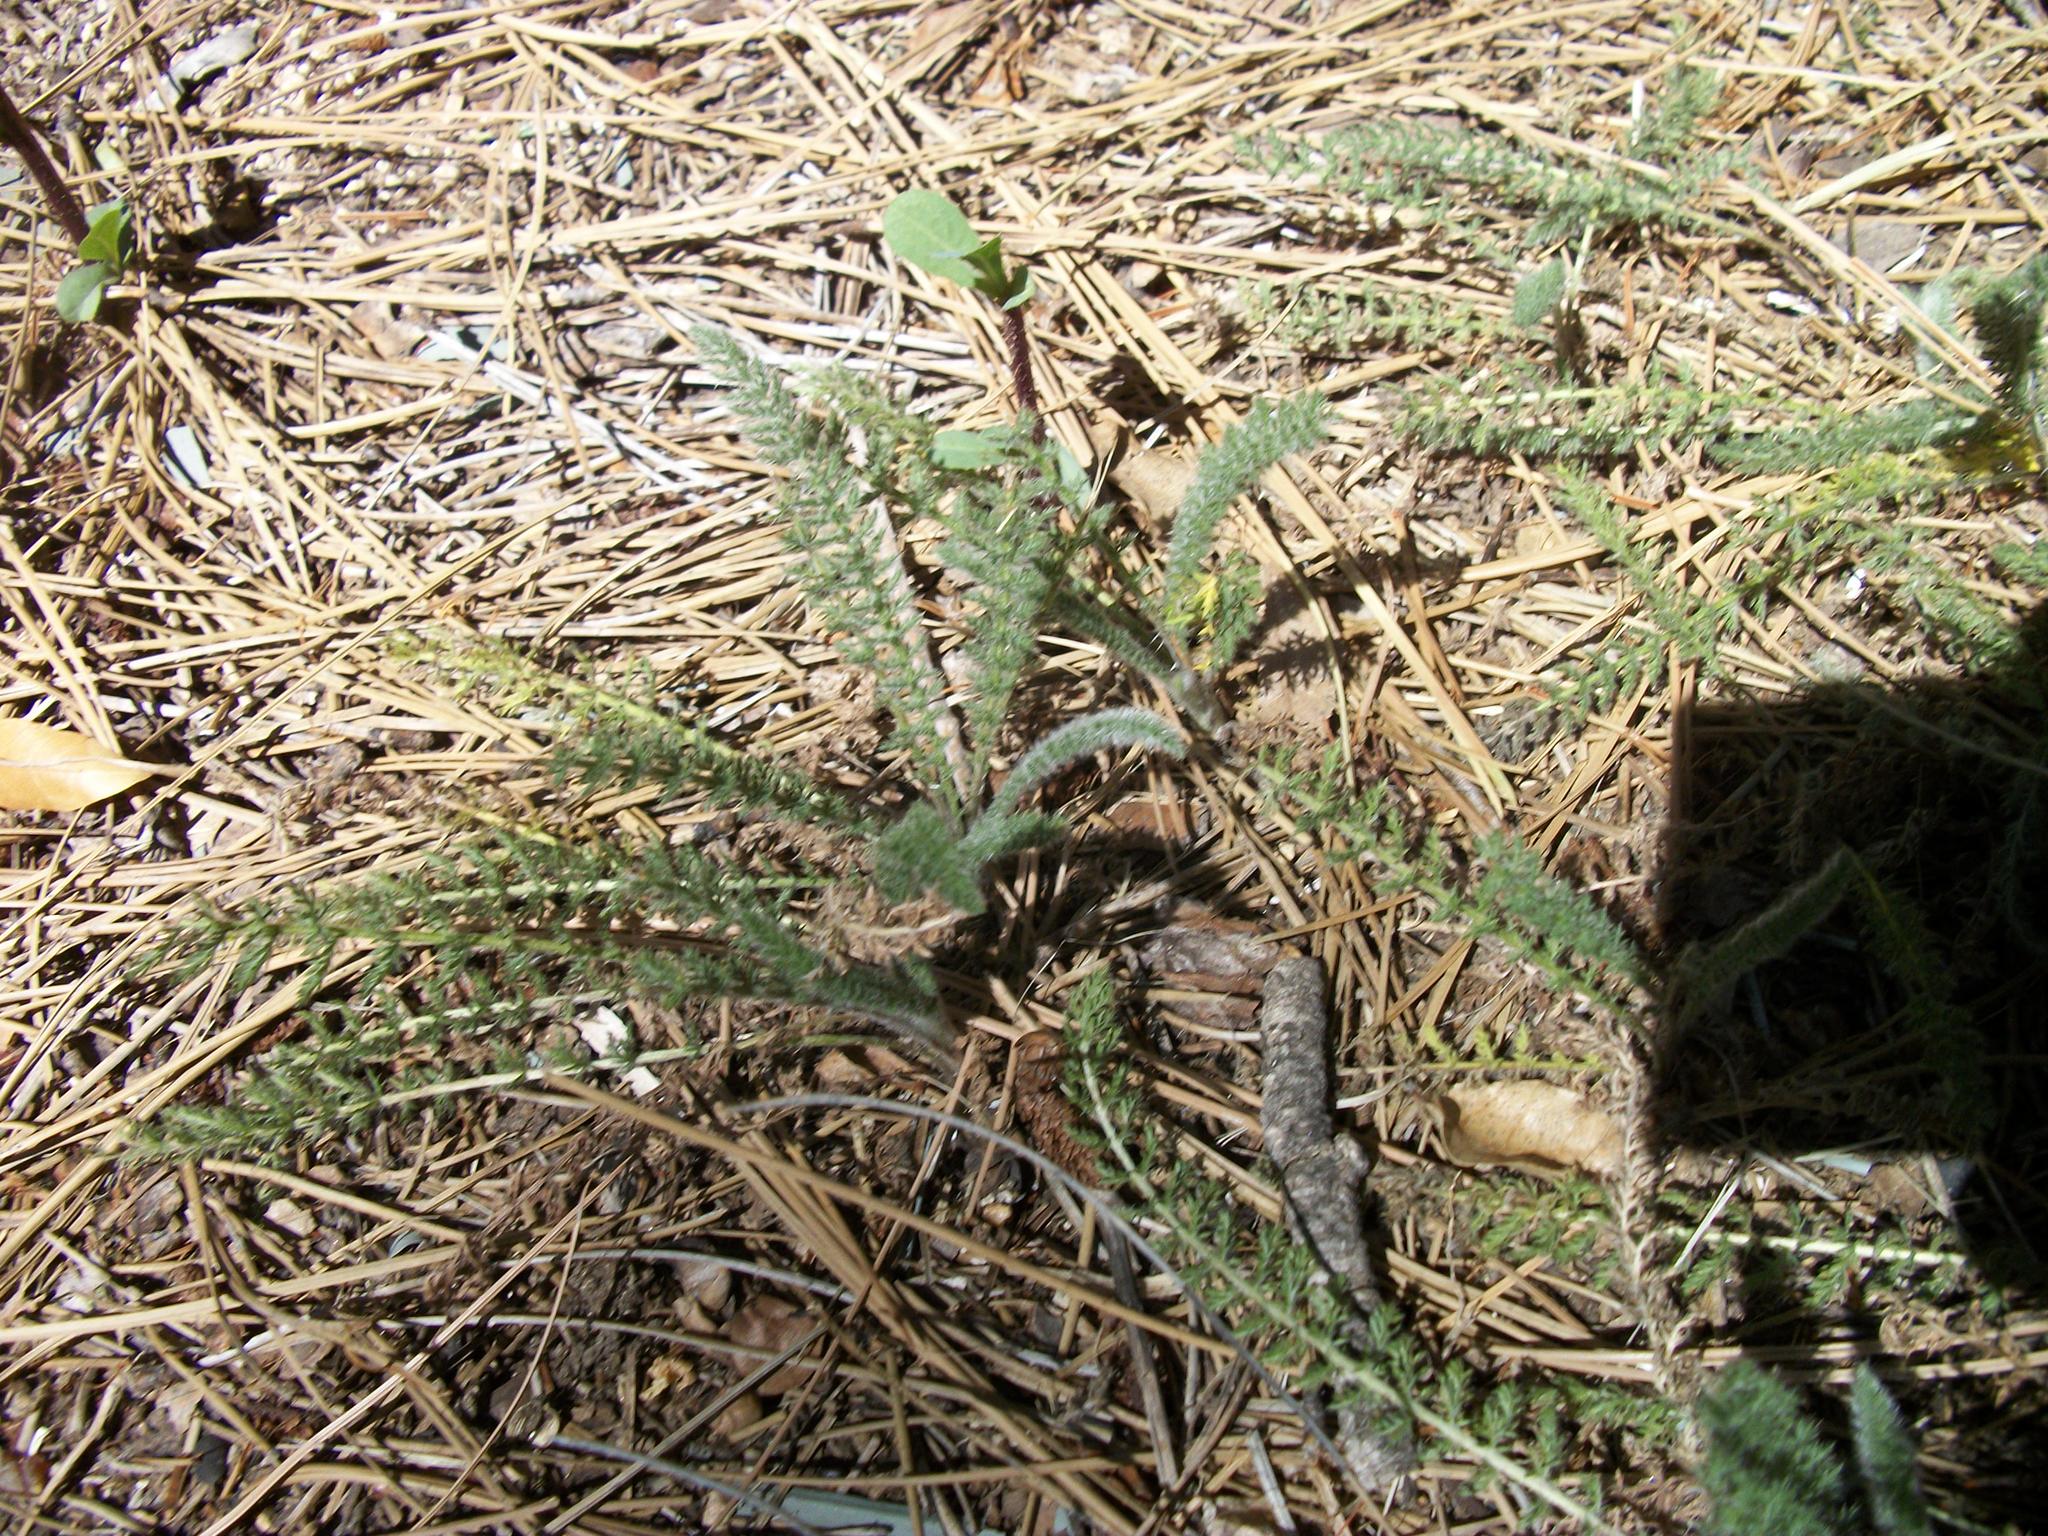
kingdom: Plantae
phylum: Tracheophyta
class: Magnoliopsida
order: Asterales
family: Asteraceae
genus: Achillea
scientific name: Achillea millefolium
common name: Yarrow
